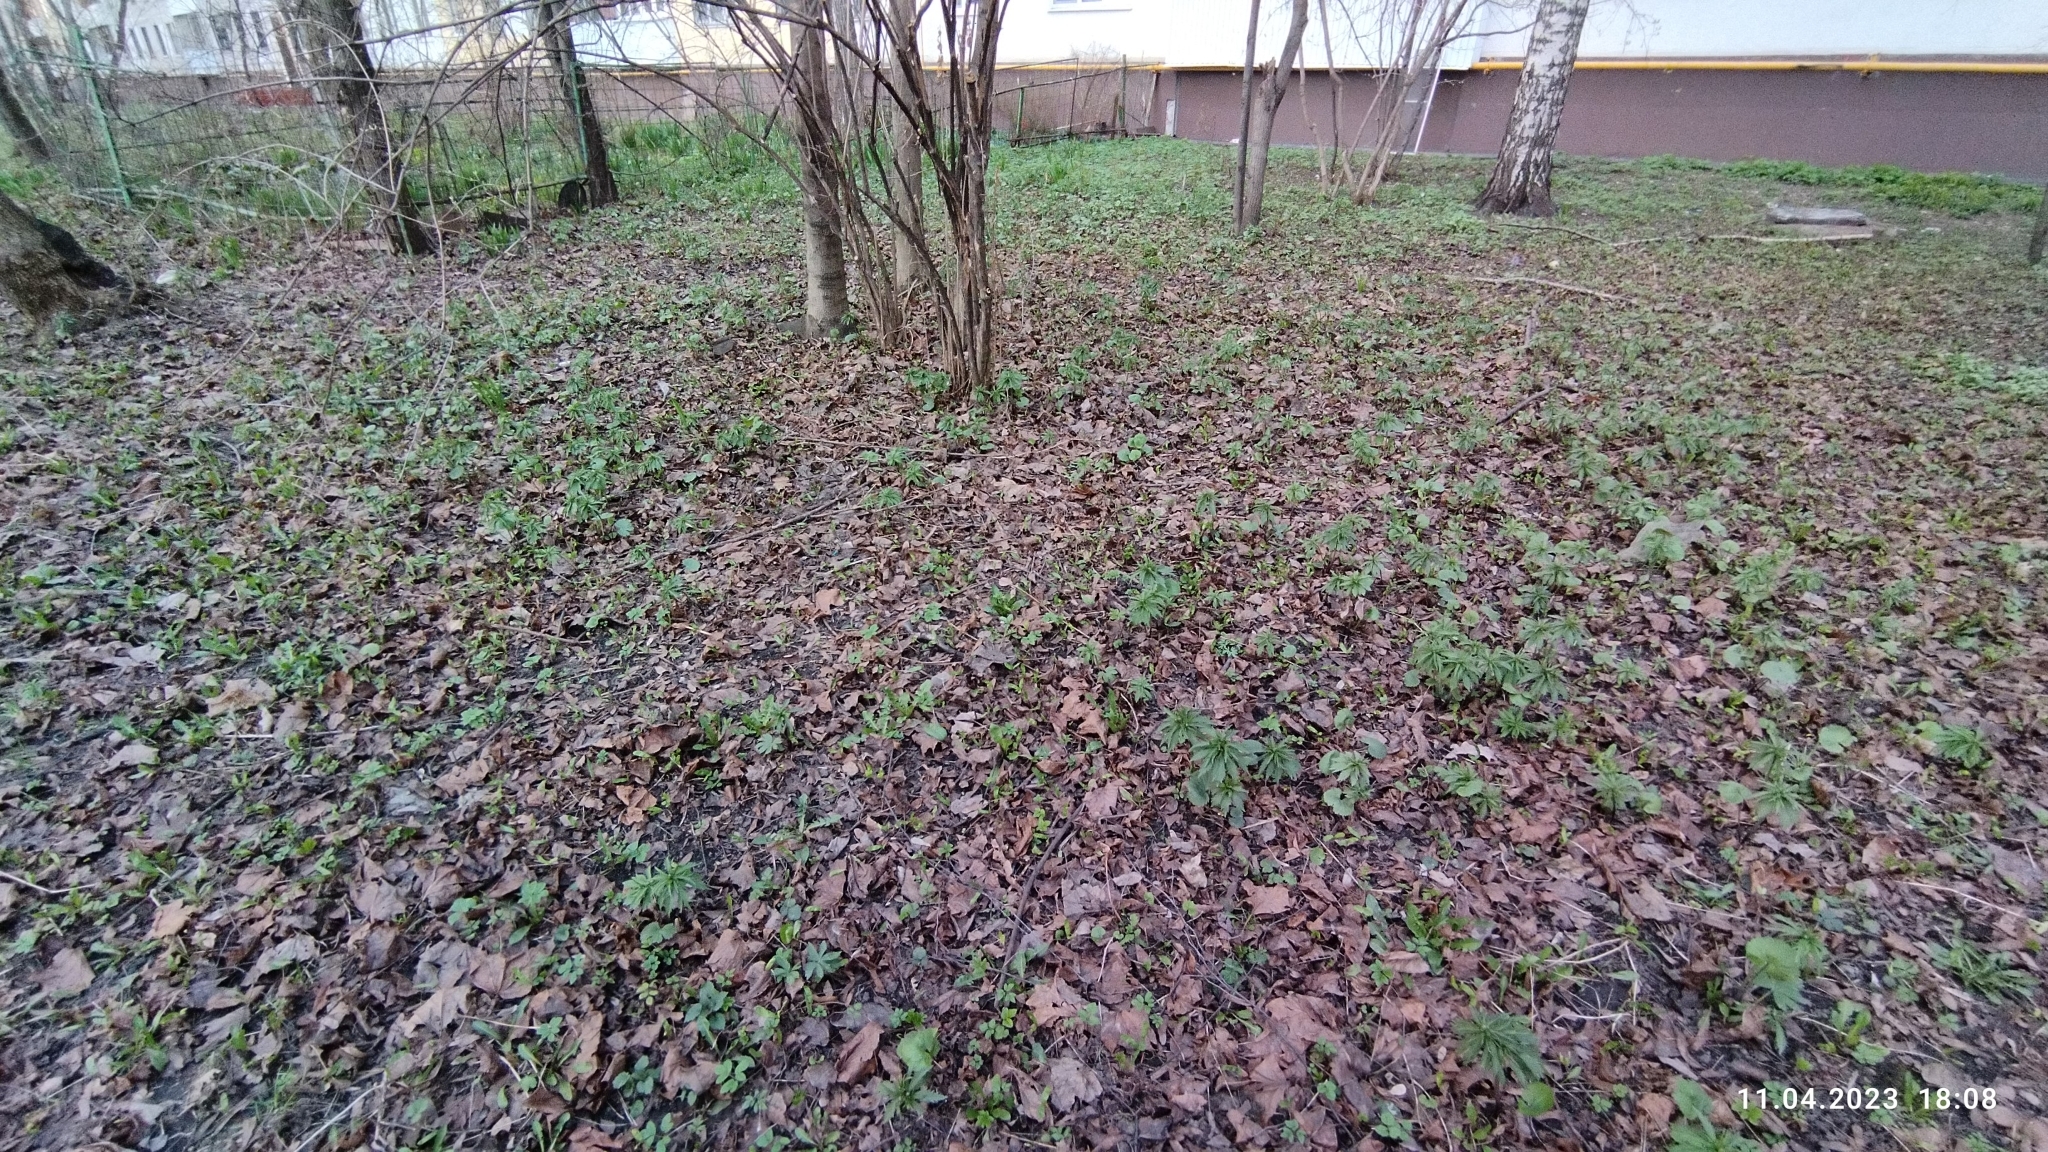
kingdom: Plantae
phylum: Tracheophyta
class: Magnoliopsida
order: Ranunculales
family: Ranunculaceae
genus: Ranunculus
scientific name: Ranunculus cassubicus
